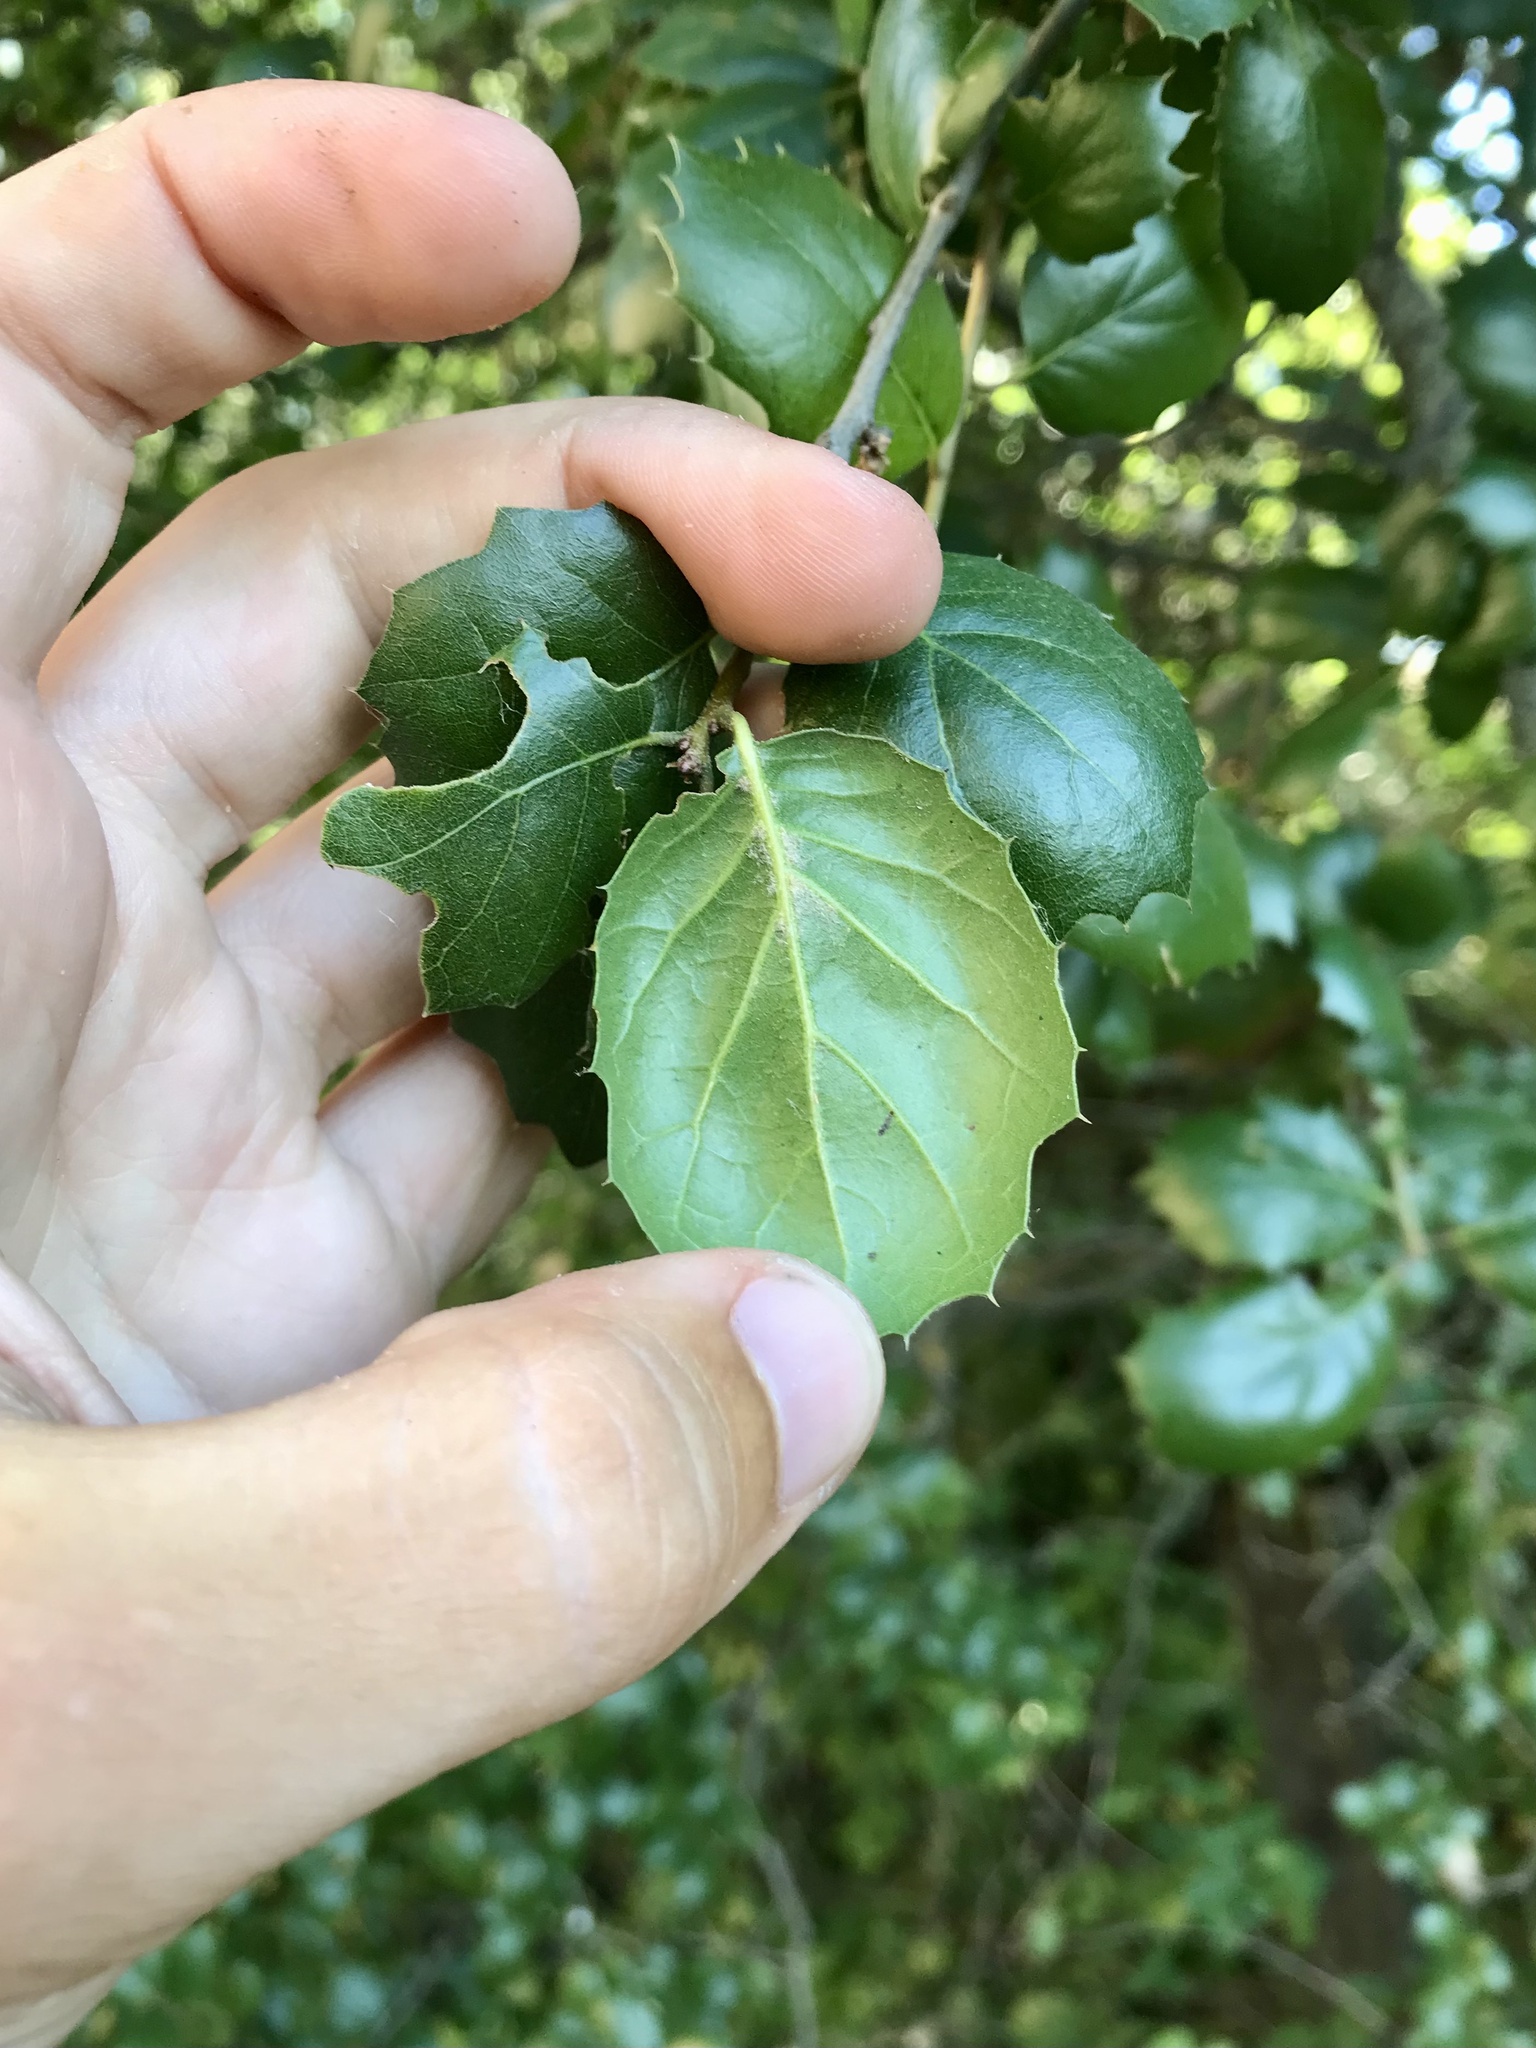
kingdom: Plantae
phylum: Tracheophyta
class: Magnoliopsida
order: Fagales
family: Fagaceae
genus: Quercus
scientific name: Quercus agrifolia
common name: California live oak
